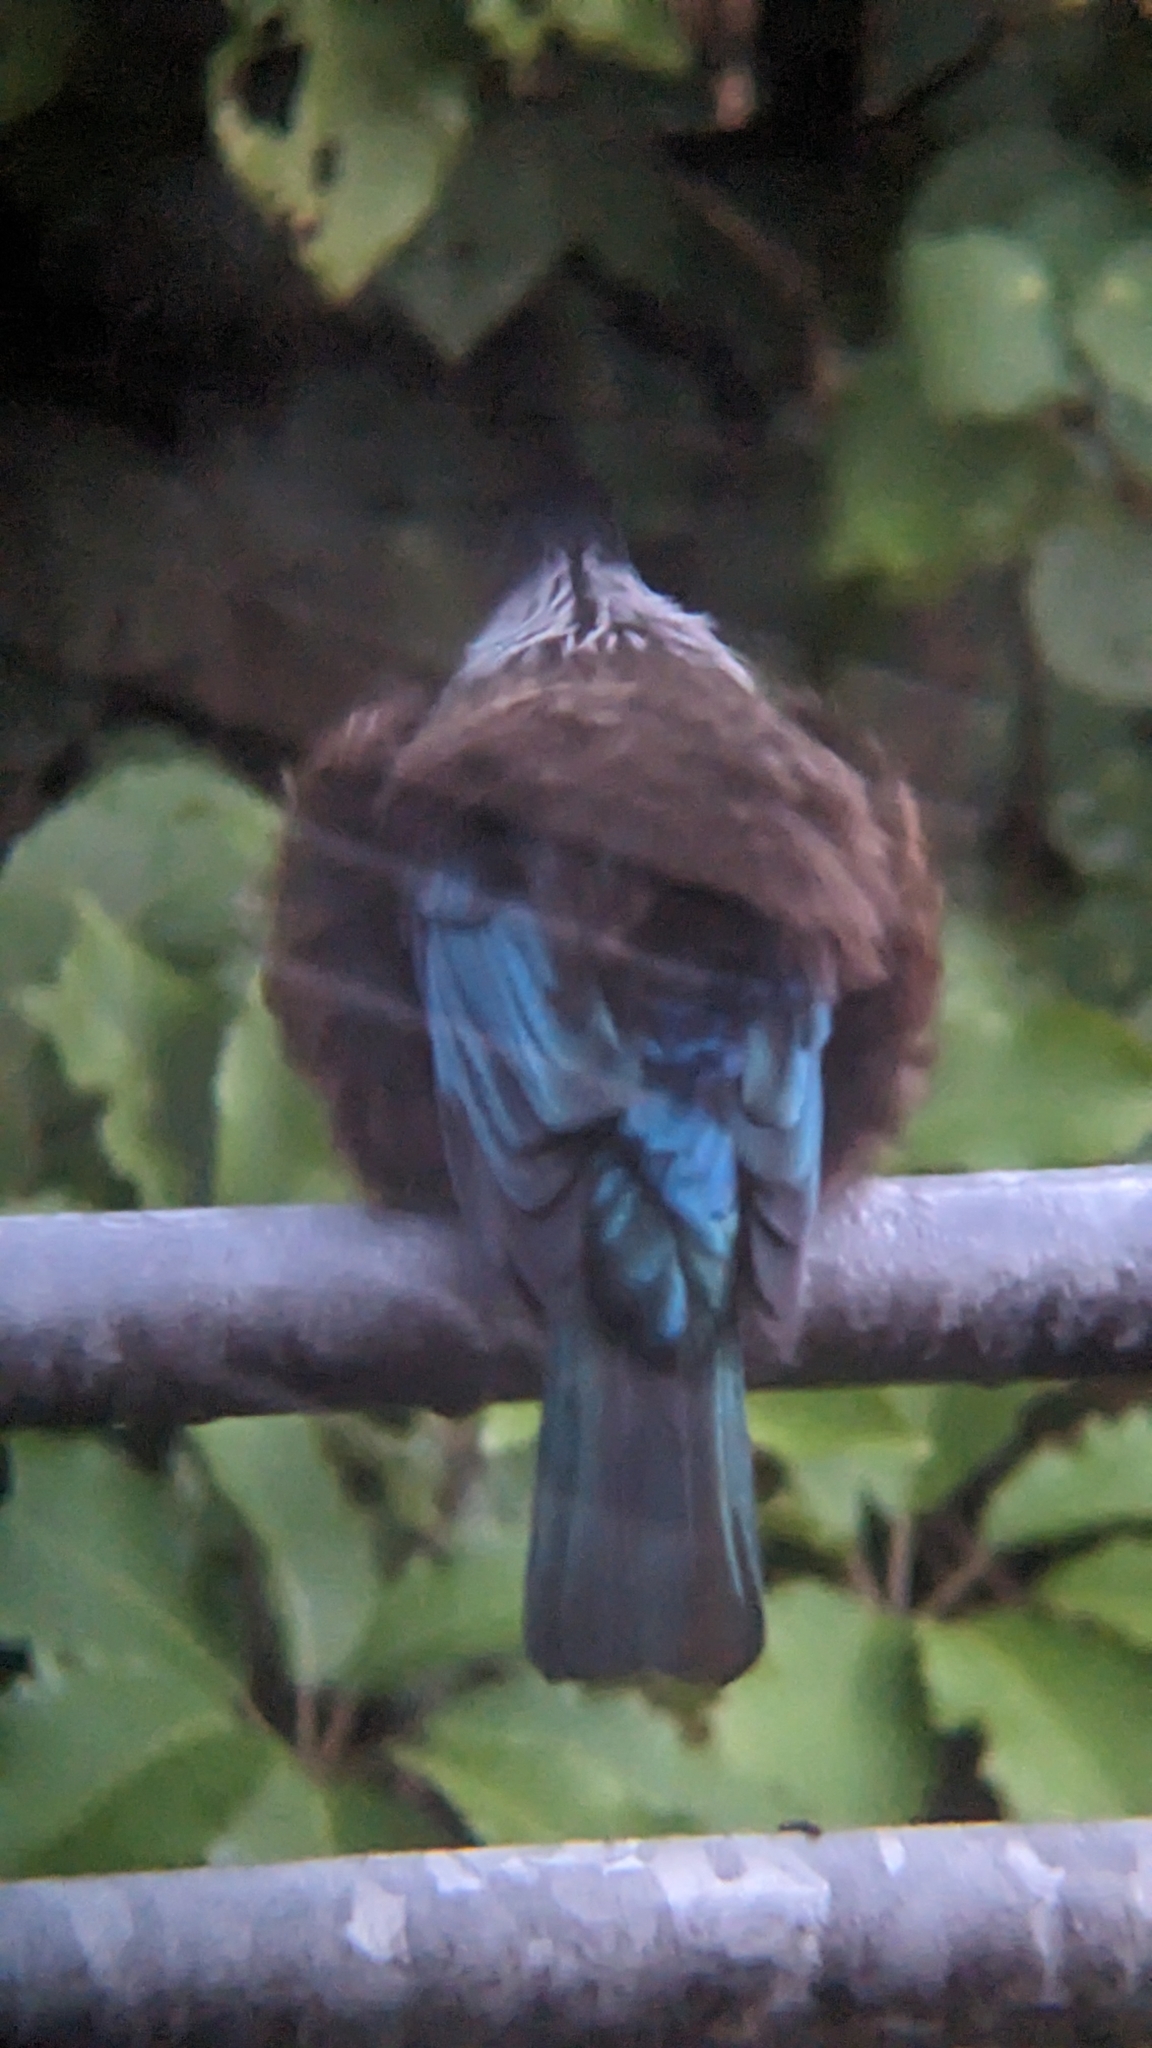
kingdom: Animalia
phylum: Chordata
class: Aves
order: Passeriformes
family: Meliphagidae
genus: Prosthemadera
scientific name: Prosthemadera novaeseelandiae
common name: Tui
